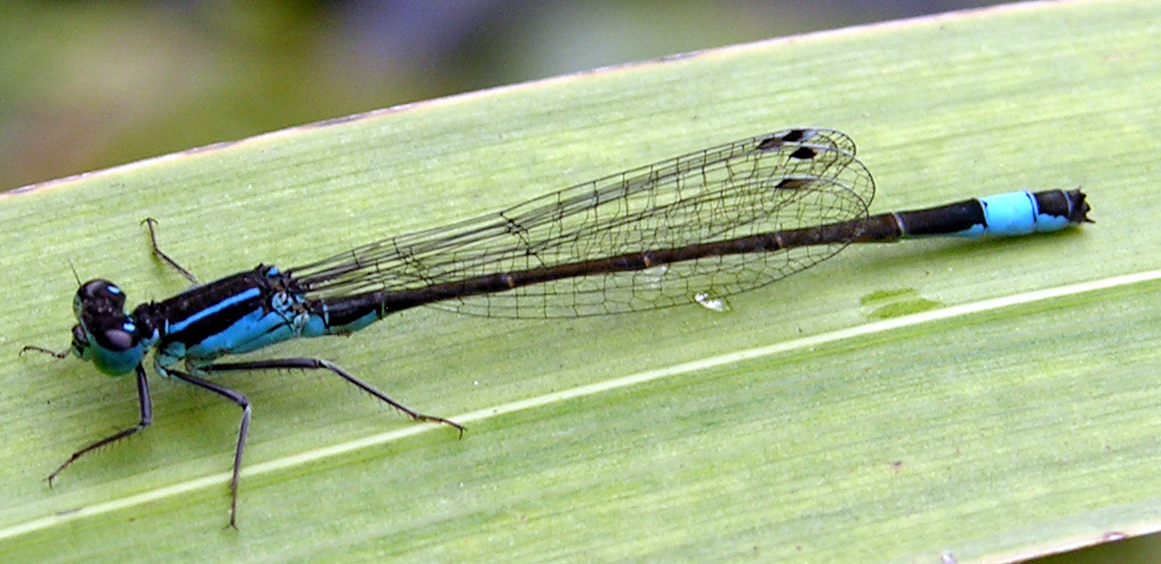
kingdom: Animalia
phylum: Arthropoda
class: Insecta
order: Odonata
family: Coenagrionidae
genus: Ischnura
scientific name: Ischnura elegans
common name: Blue-tailed damselfly
